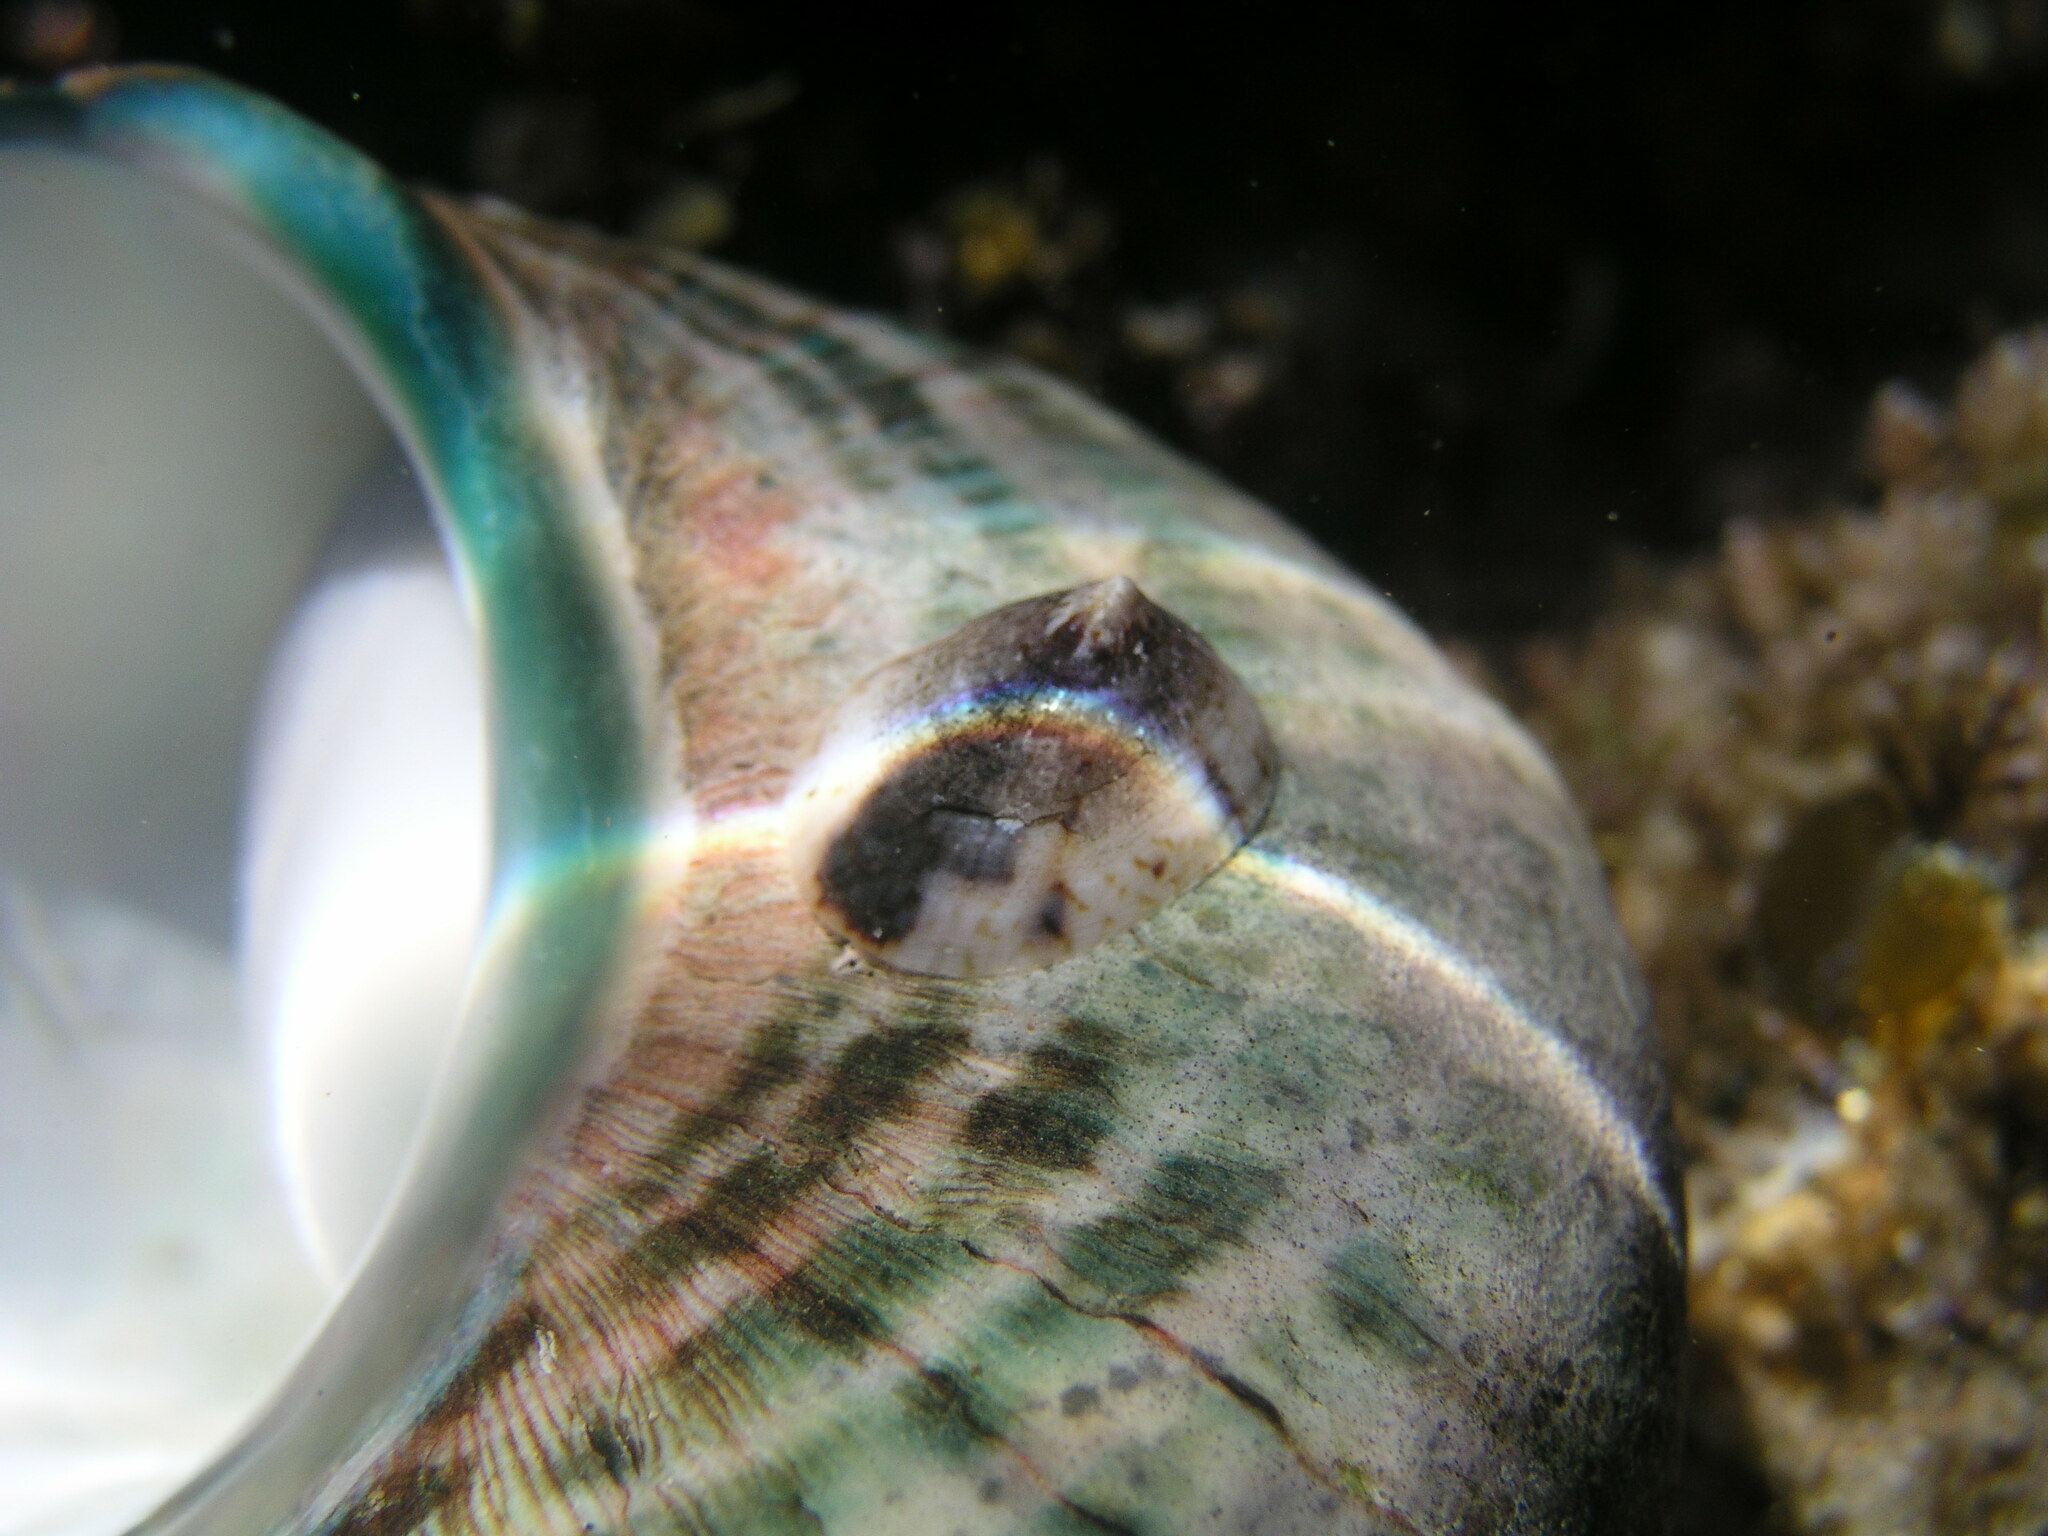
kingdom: Animalia
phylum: Mollusca
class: Gastropoda
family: Lottiidae
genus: Patelloida
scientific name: Patelloida mufria
